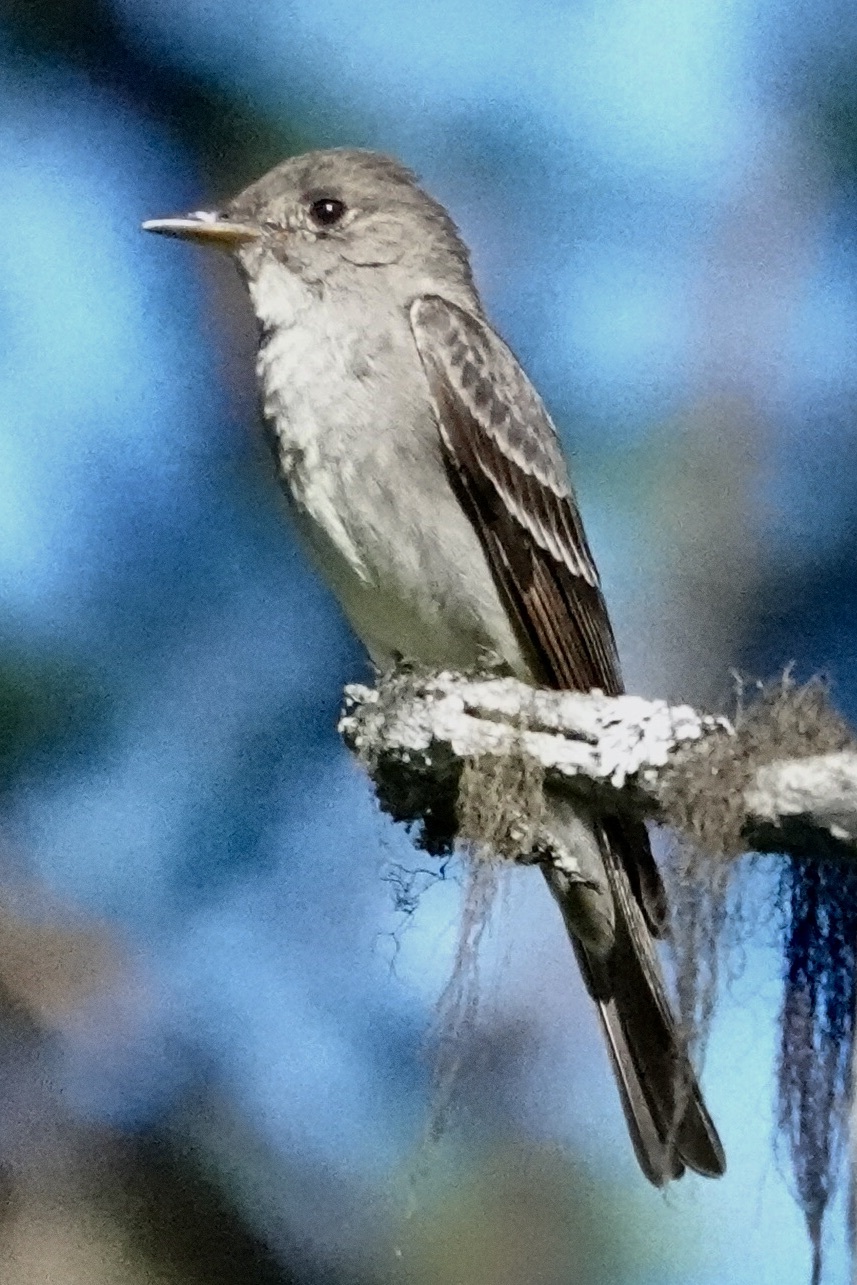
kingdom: Animalia
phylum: Chordata
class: Aves
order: Passeriformes
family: Tyrannidae
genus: Contopus
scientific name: Contopus sordidulus
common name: Western wood-pewee
